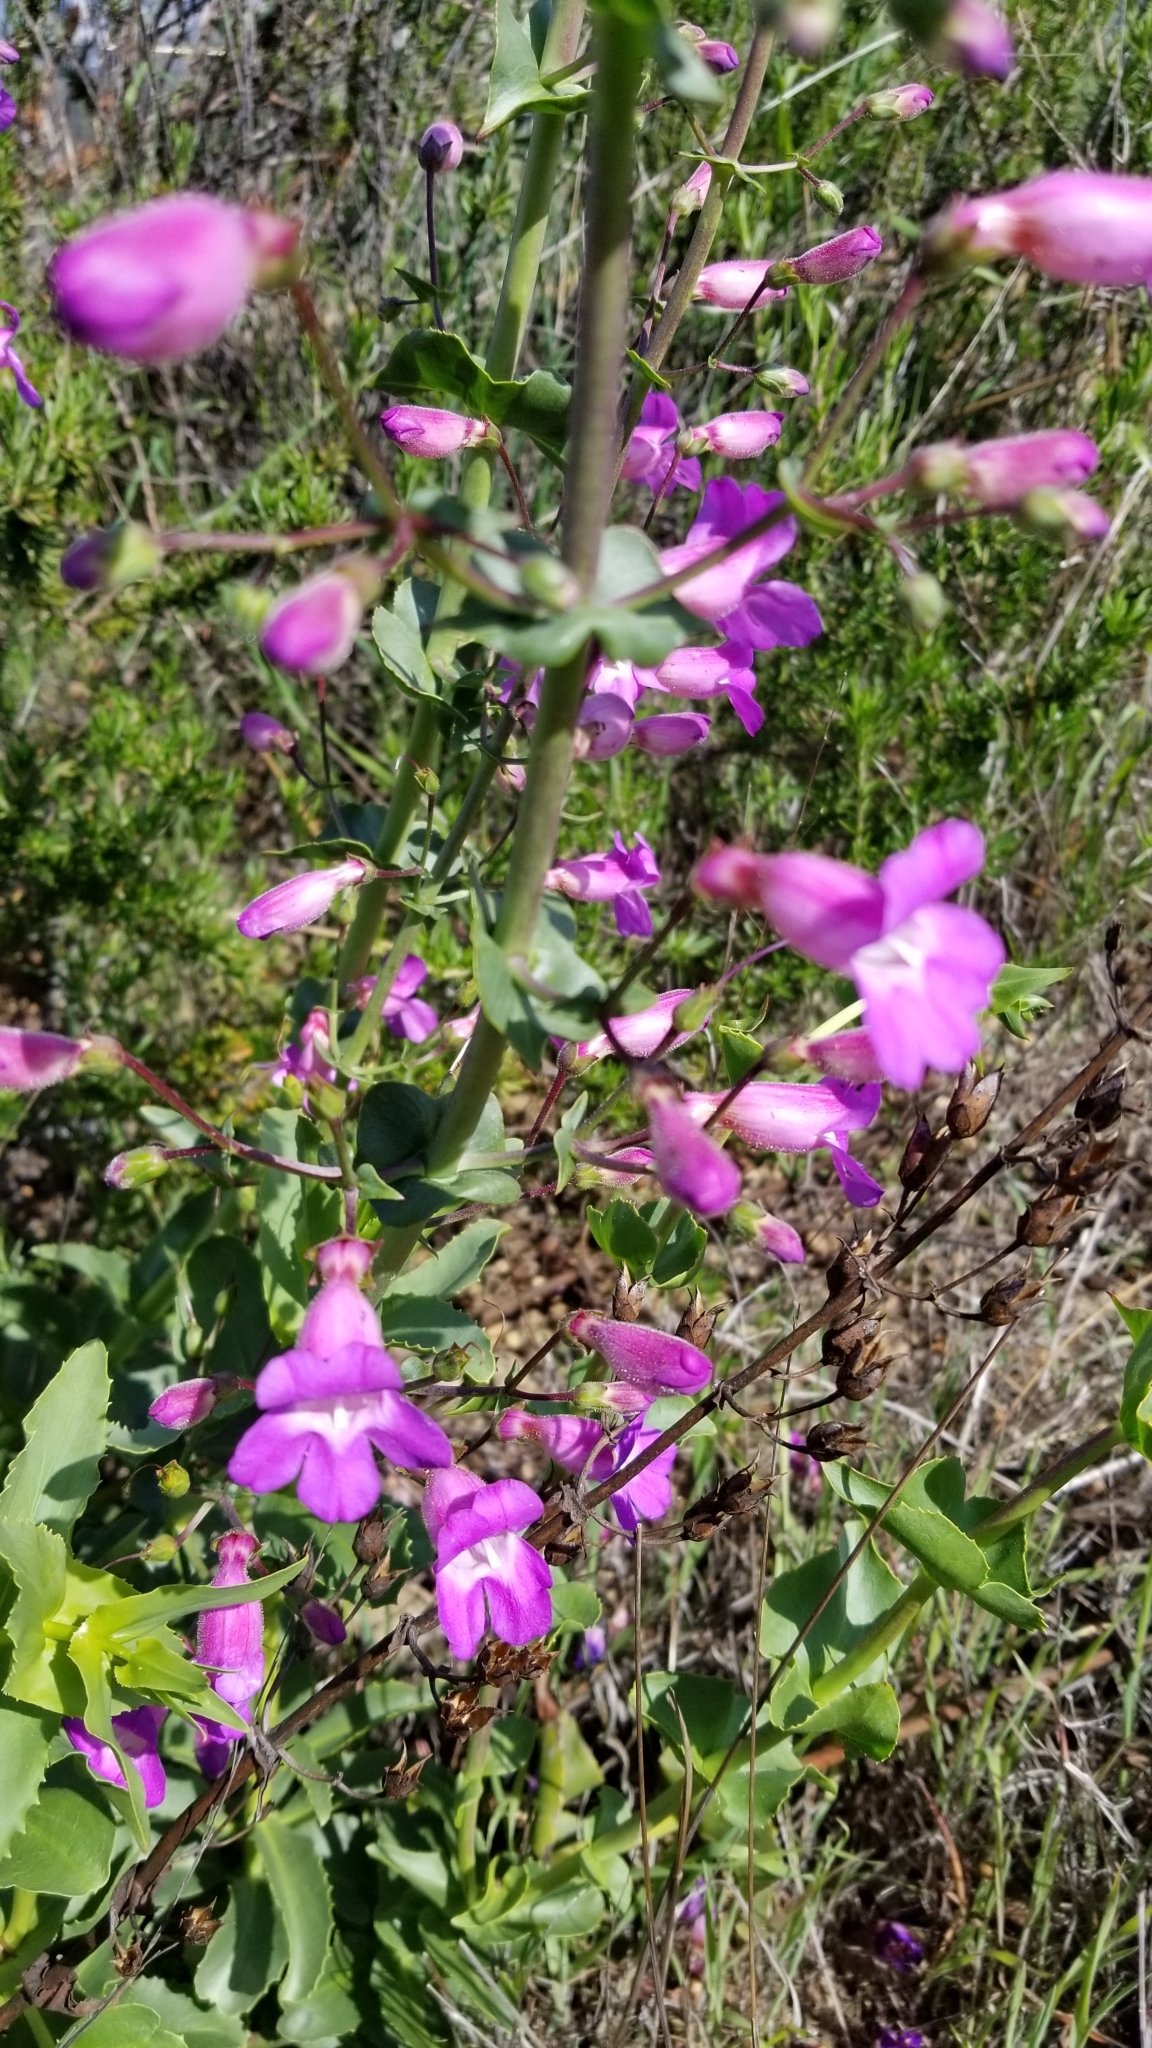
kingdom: Plantae
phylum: Tracheophyta
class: Magnoliopsida
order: Lamiales
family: Plantaginaceae
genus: Penstemon
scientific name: Penstemon spectabilis
